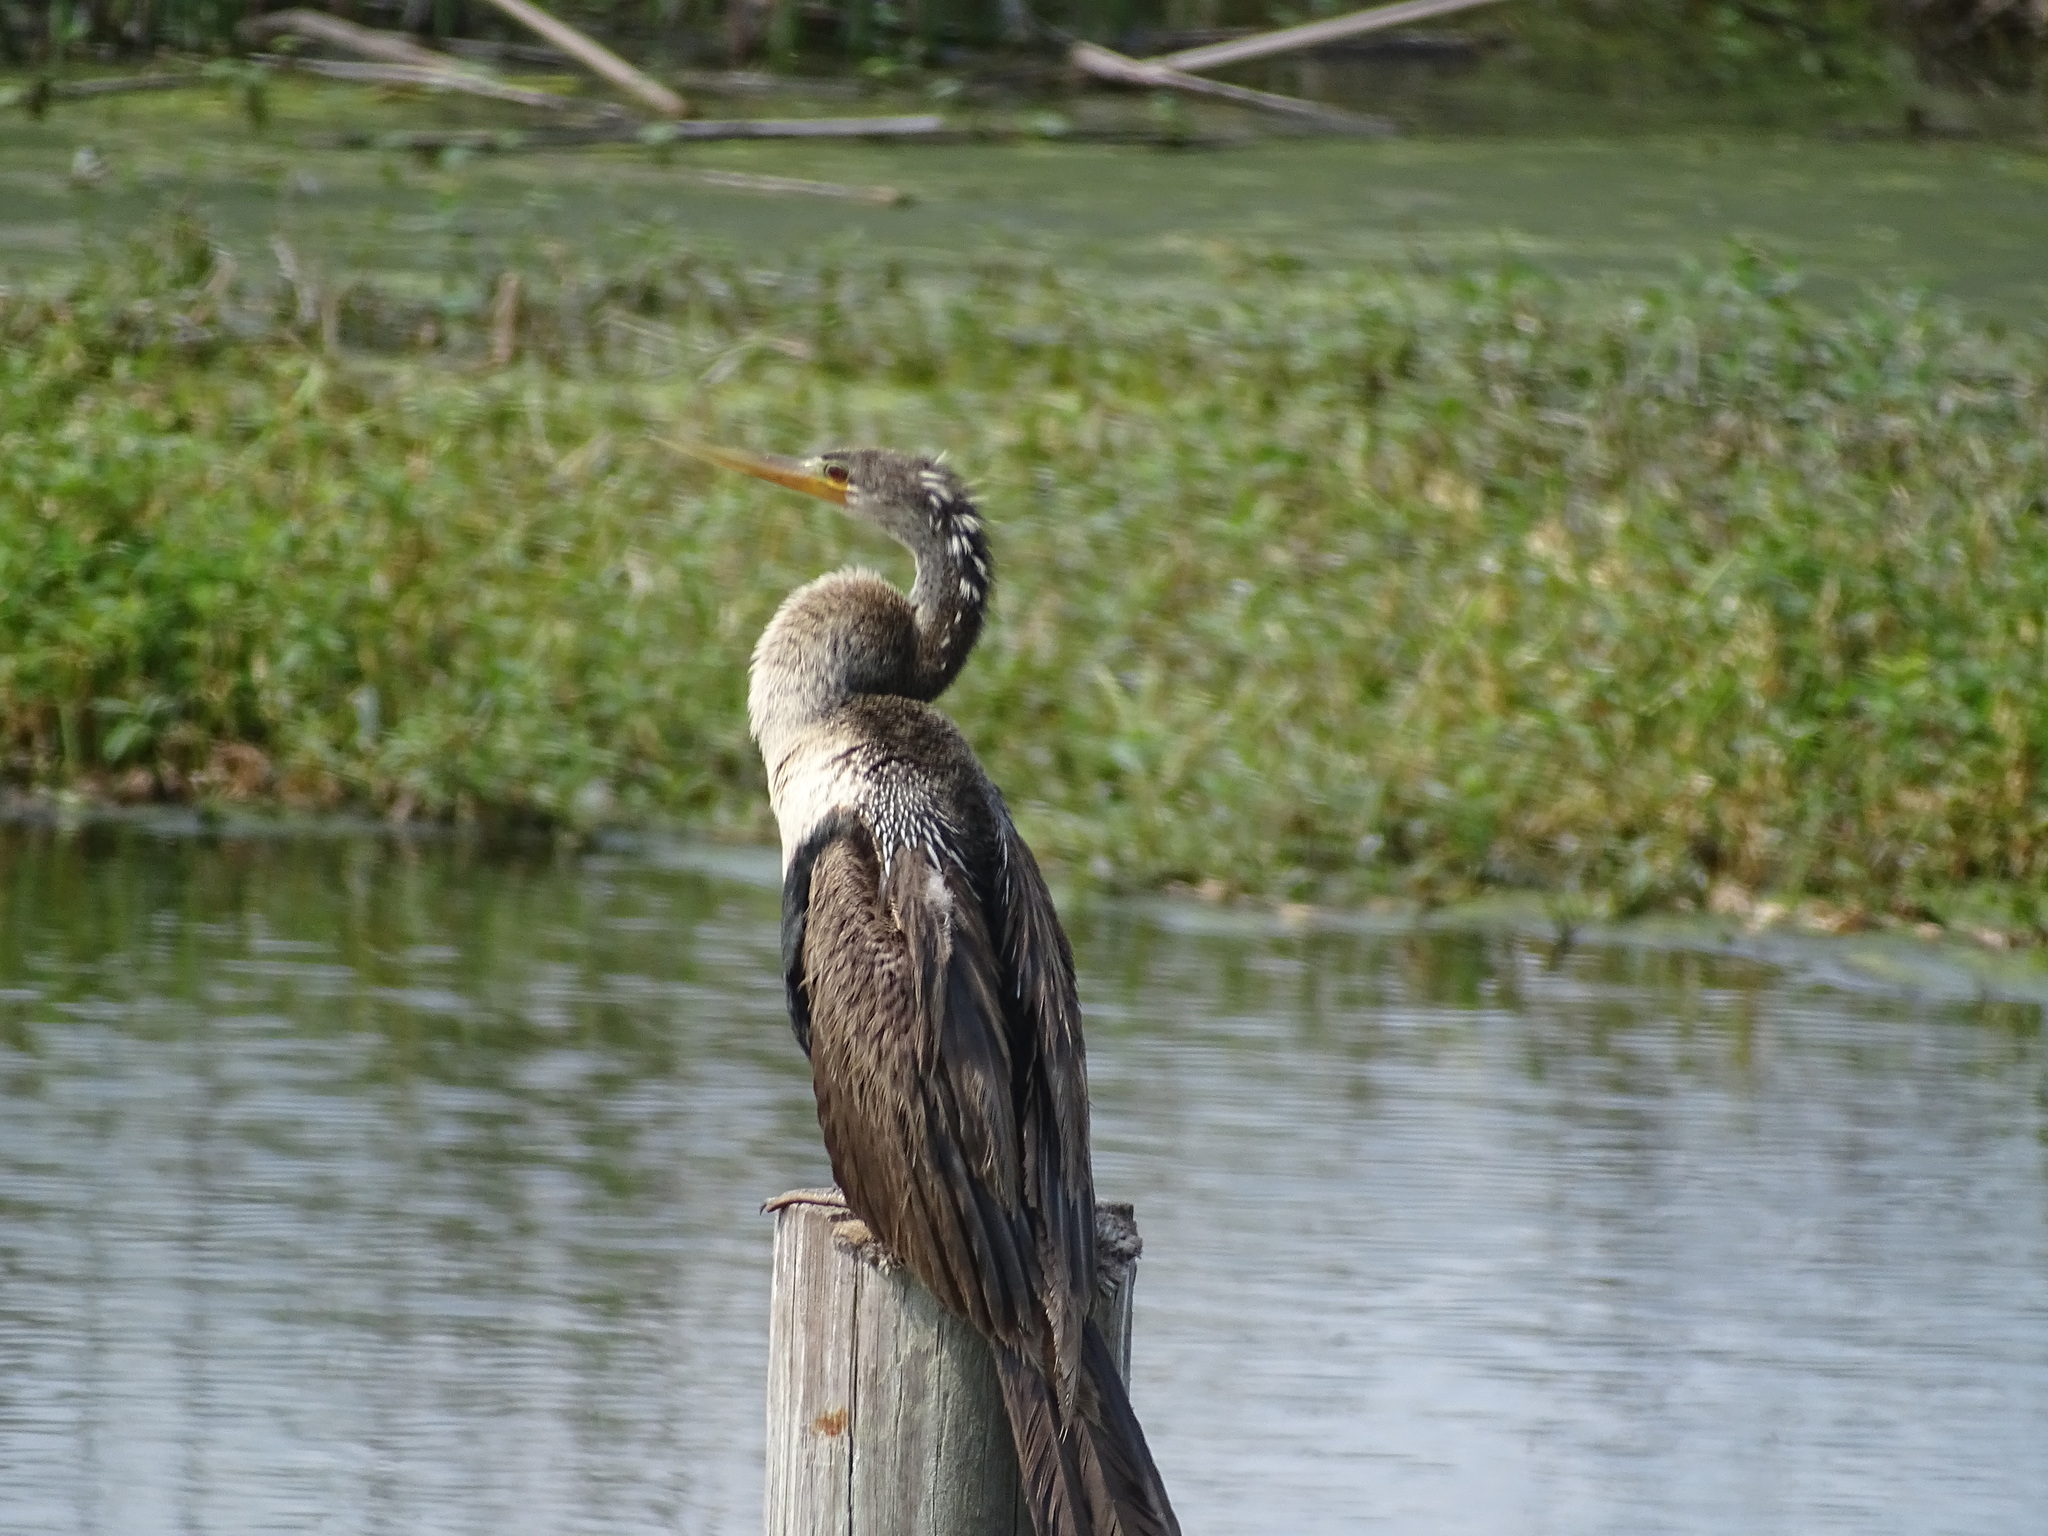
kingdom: Animalia
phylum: Chordata
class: Aves
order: Suliformes
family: Anhingidae
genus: Anhinga
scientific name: Anhinga anhinga
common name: Anhinga
